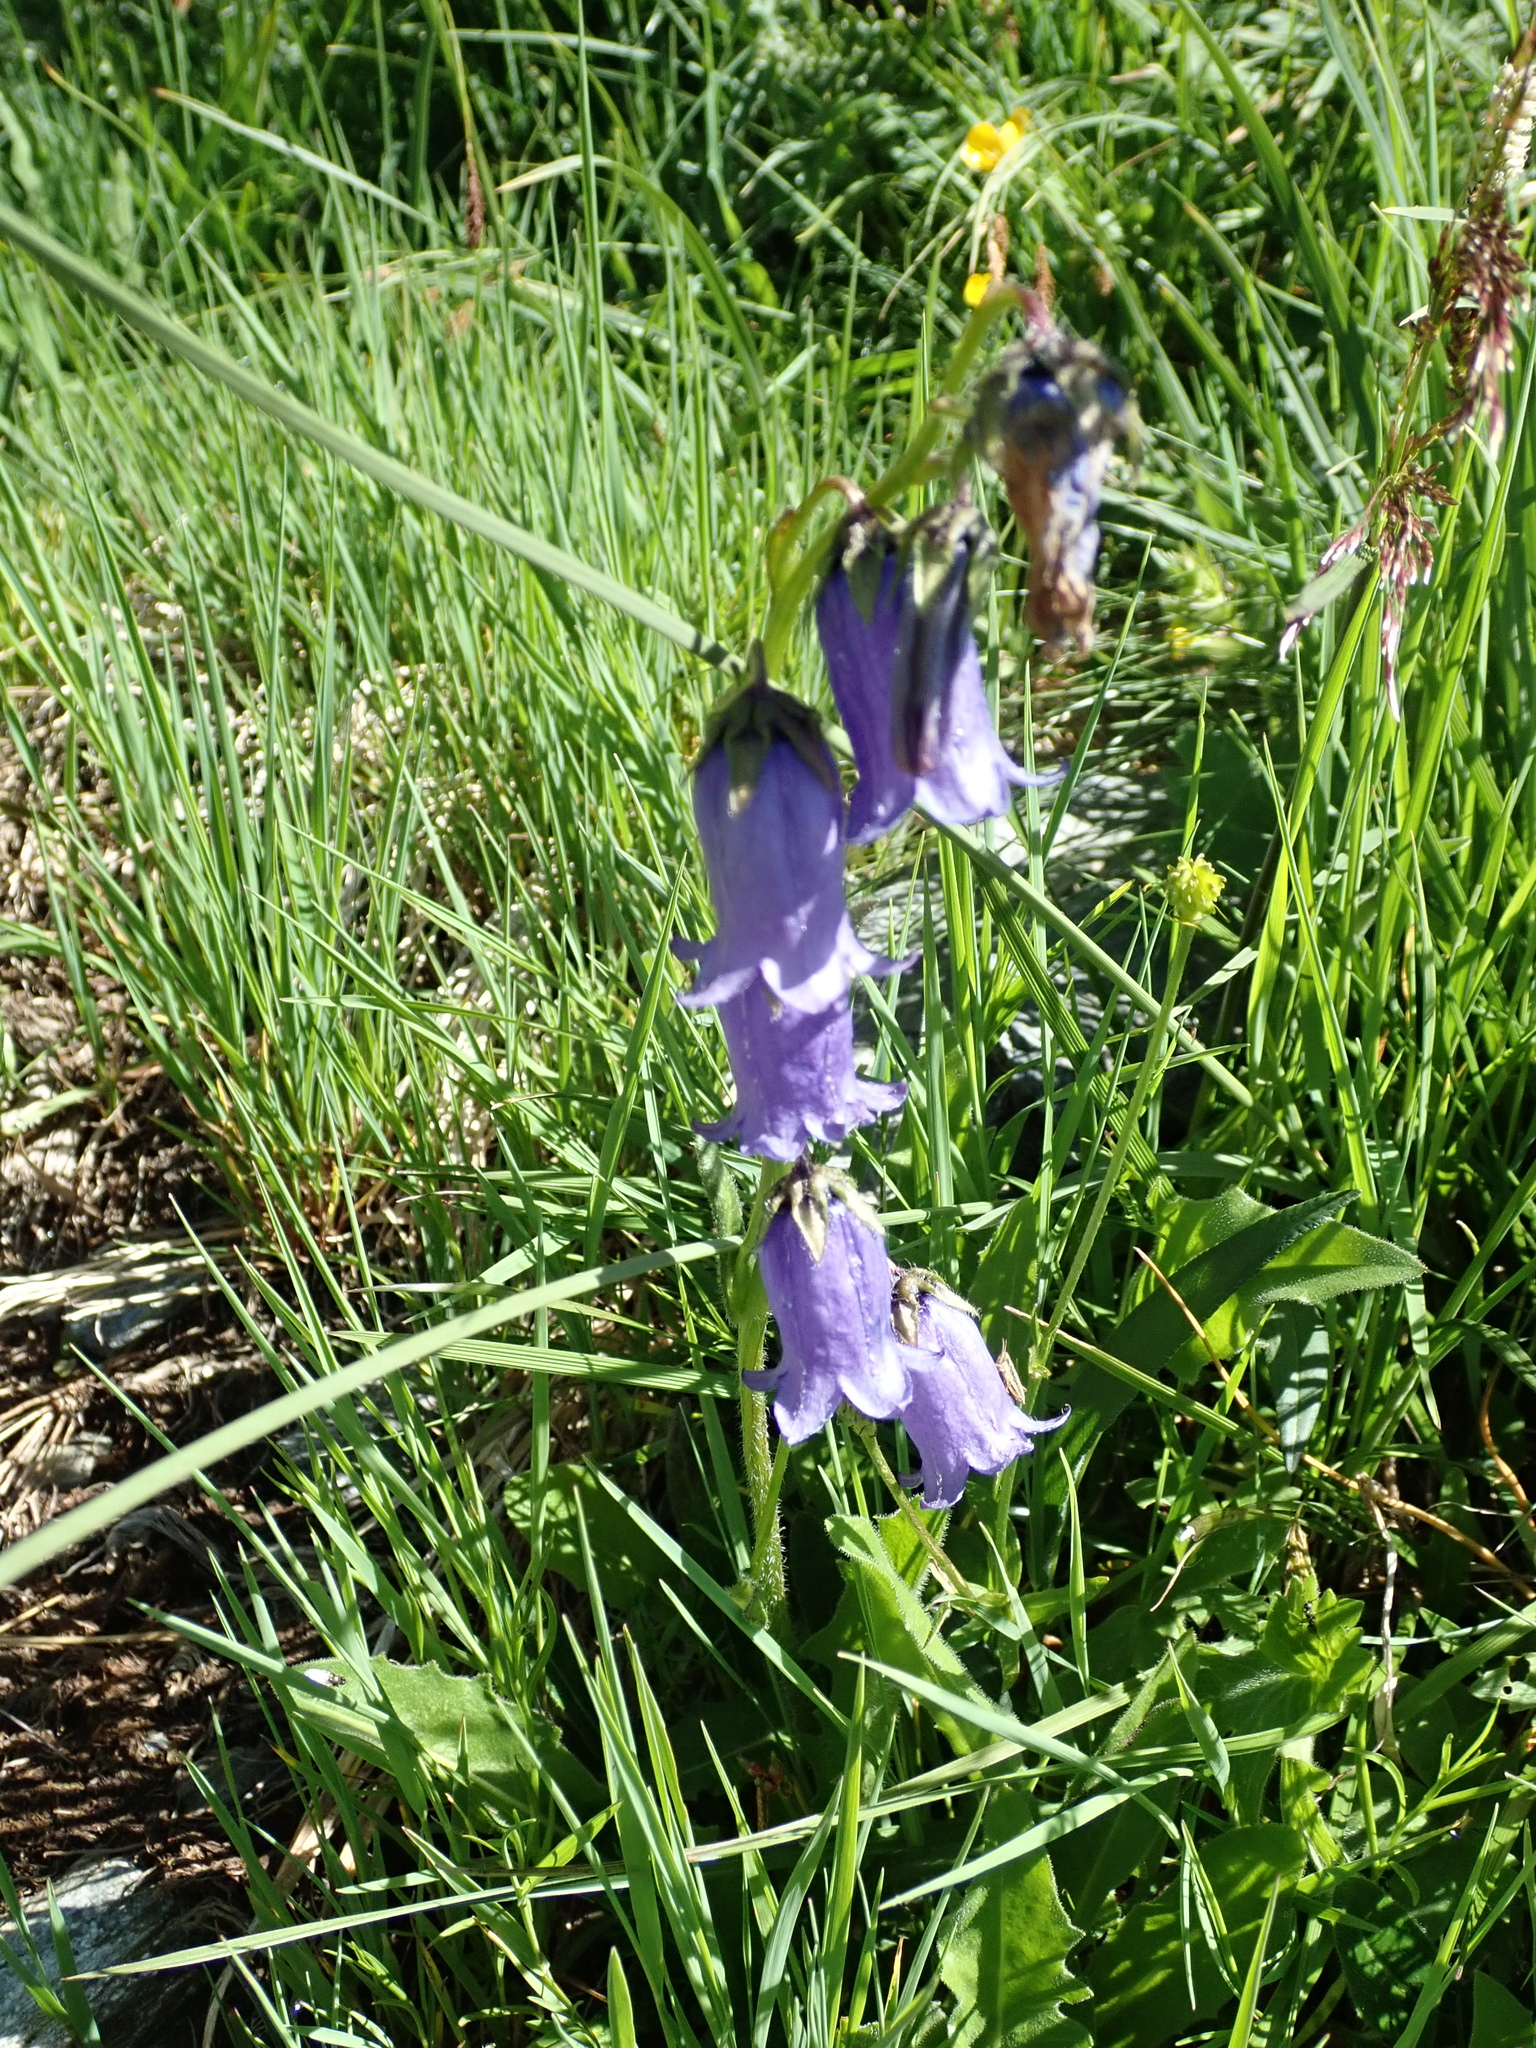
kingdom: Plantae
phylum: Tracheophyta
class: Magnoliopsida
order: Asterales
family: Campanulaceae
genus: Campanula
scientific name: Campanula barbata
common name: Bearded bellflower
